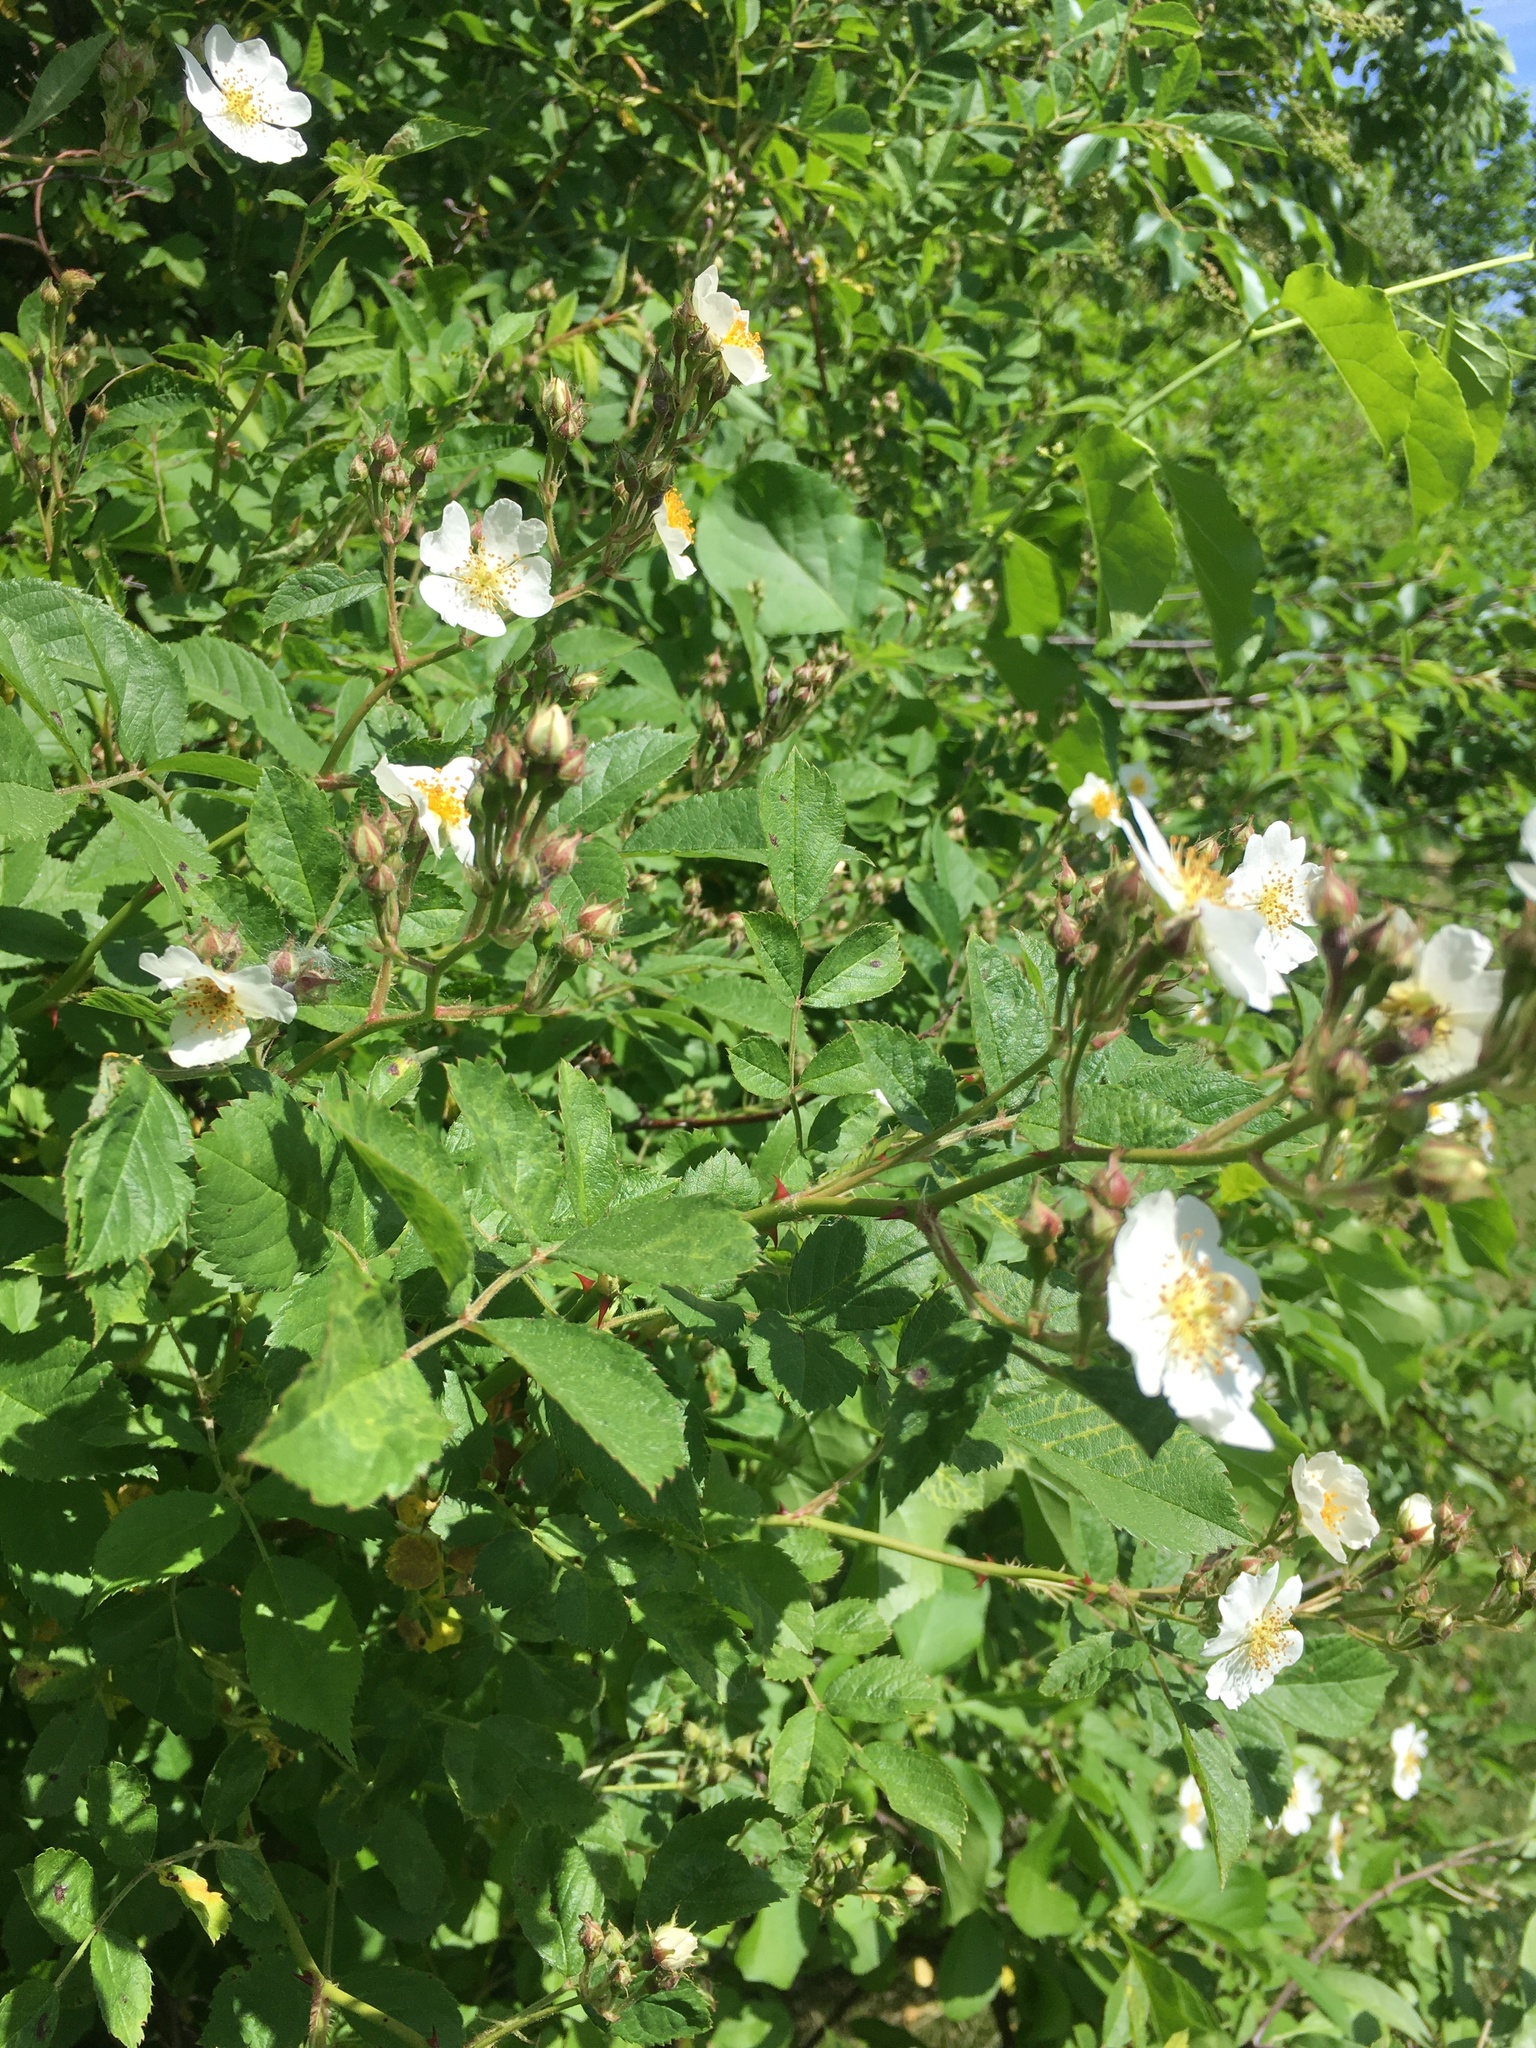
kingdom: Plantae
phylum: Tracheophyta
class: Magnoliopsida
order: Rosales
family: Rosaceae
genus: Rosa
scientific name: Rosa multiflora
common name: Multiflora rose
